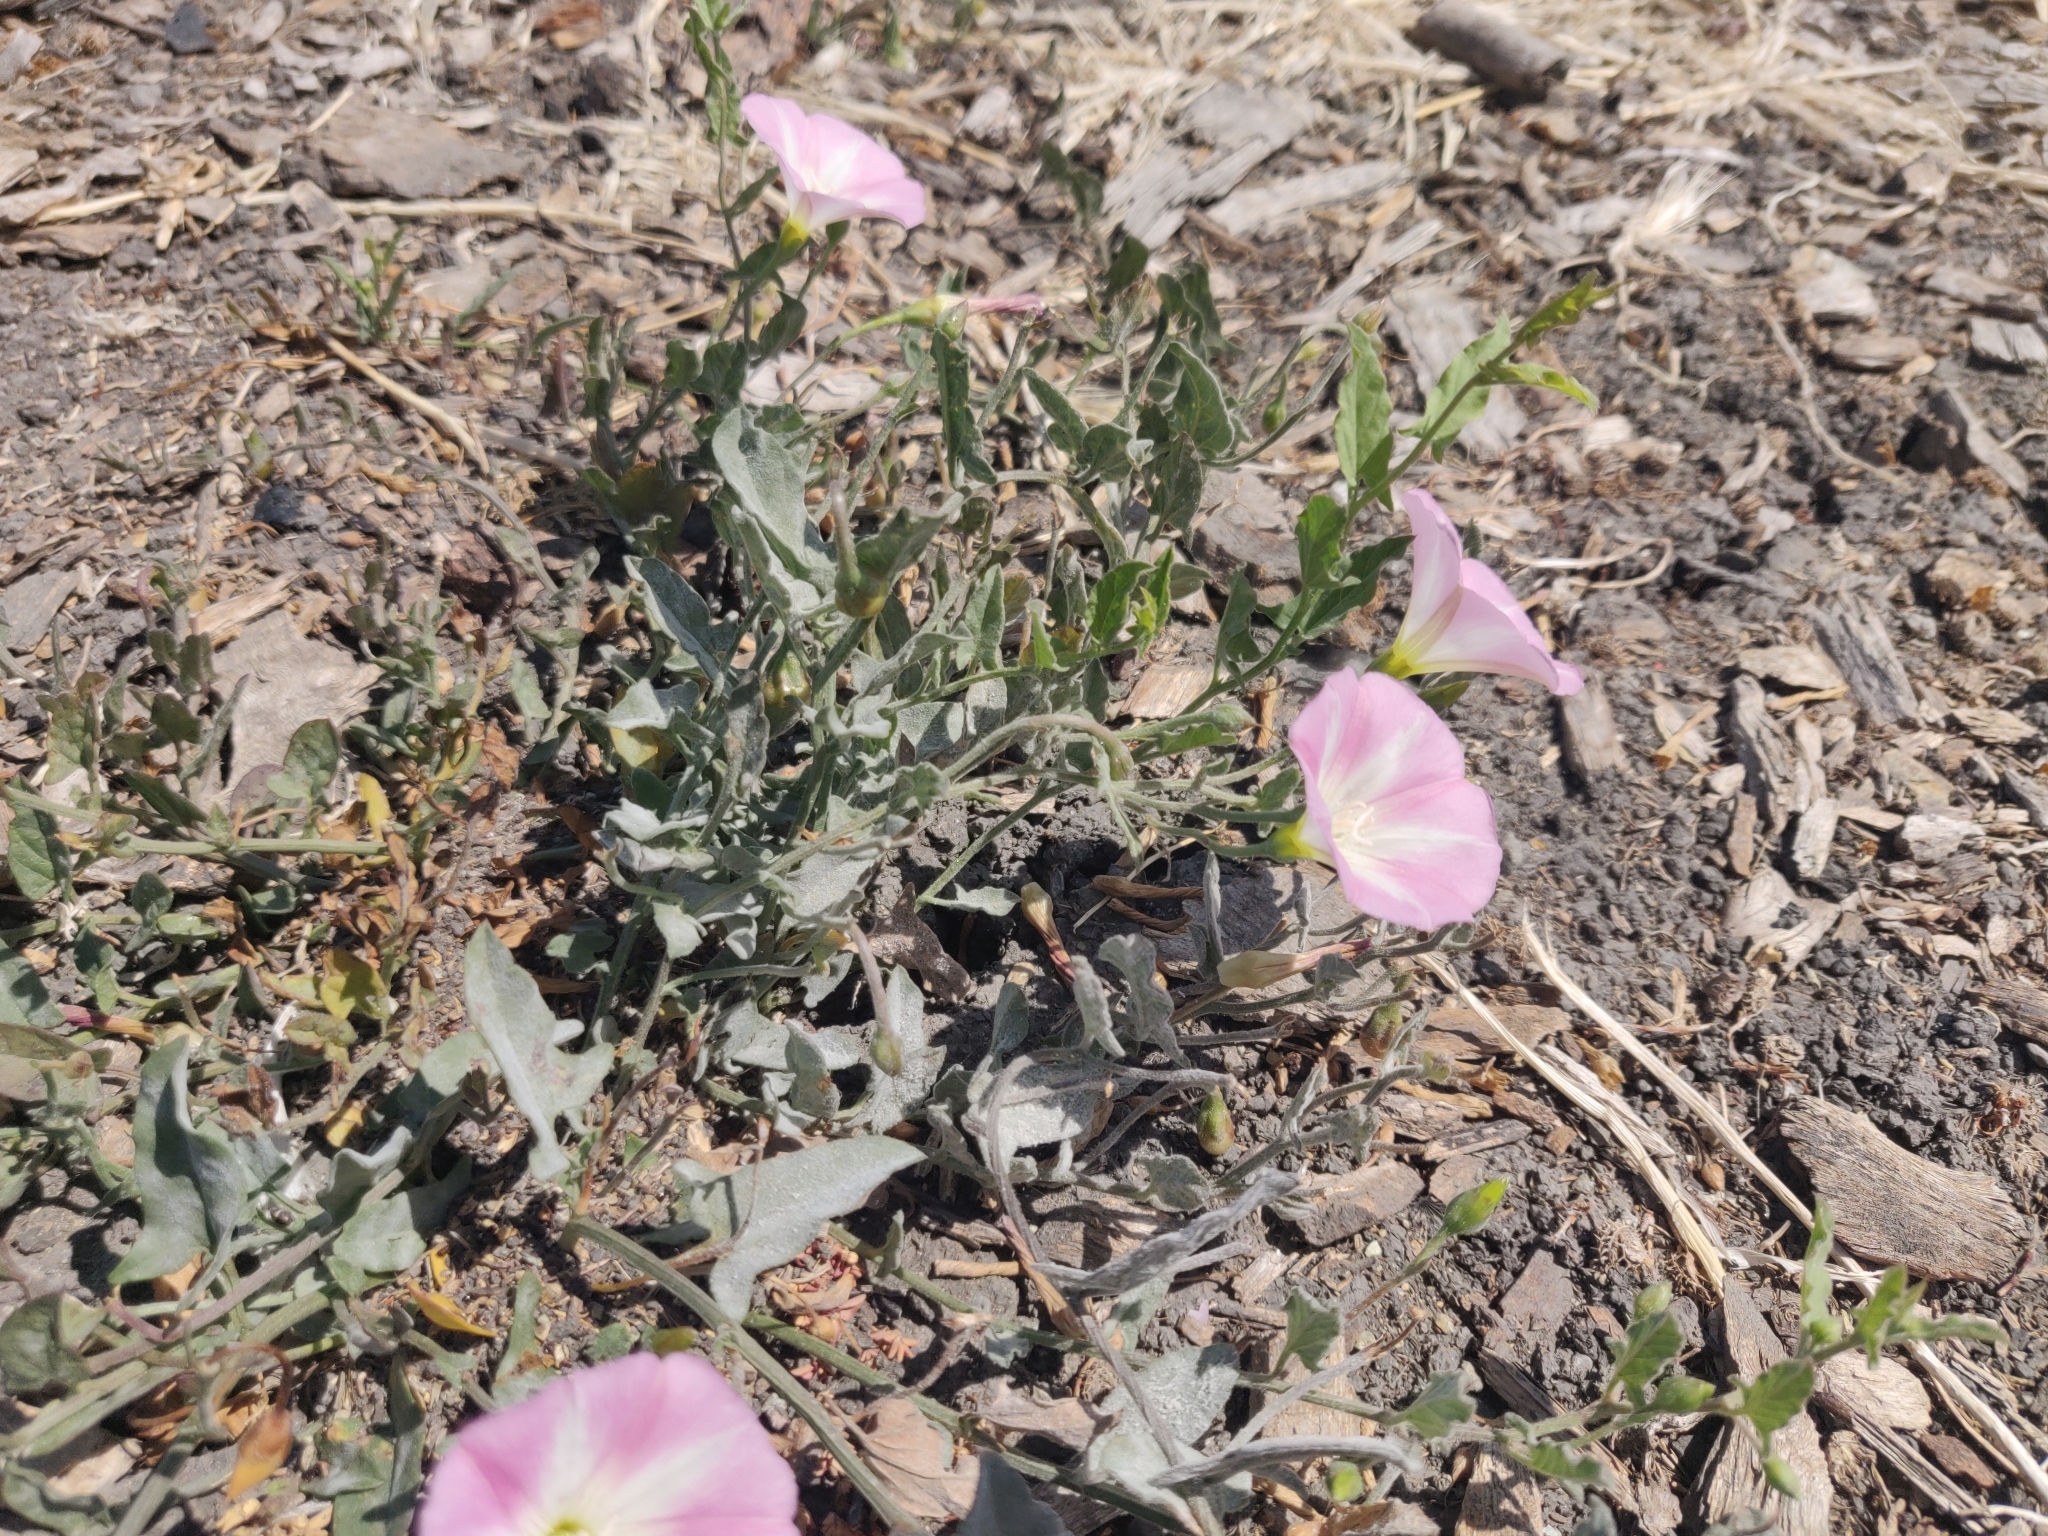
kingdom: Plantae
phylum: Tracheophyta
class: Magnoliopsida
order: Solanales
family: Convolvulaceae
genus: Convolvulus
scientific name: Convolvulus arvensis
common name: Field bindweed
